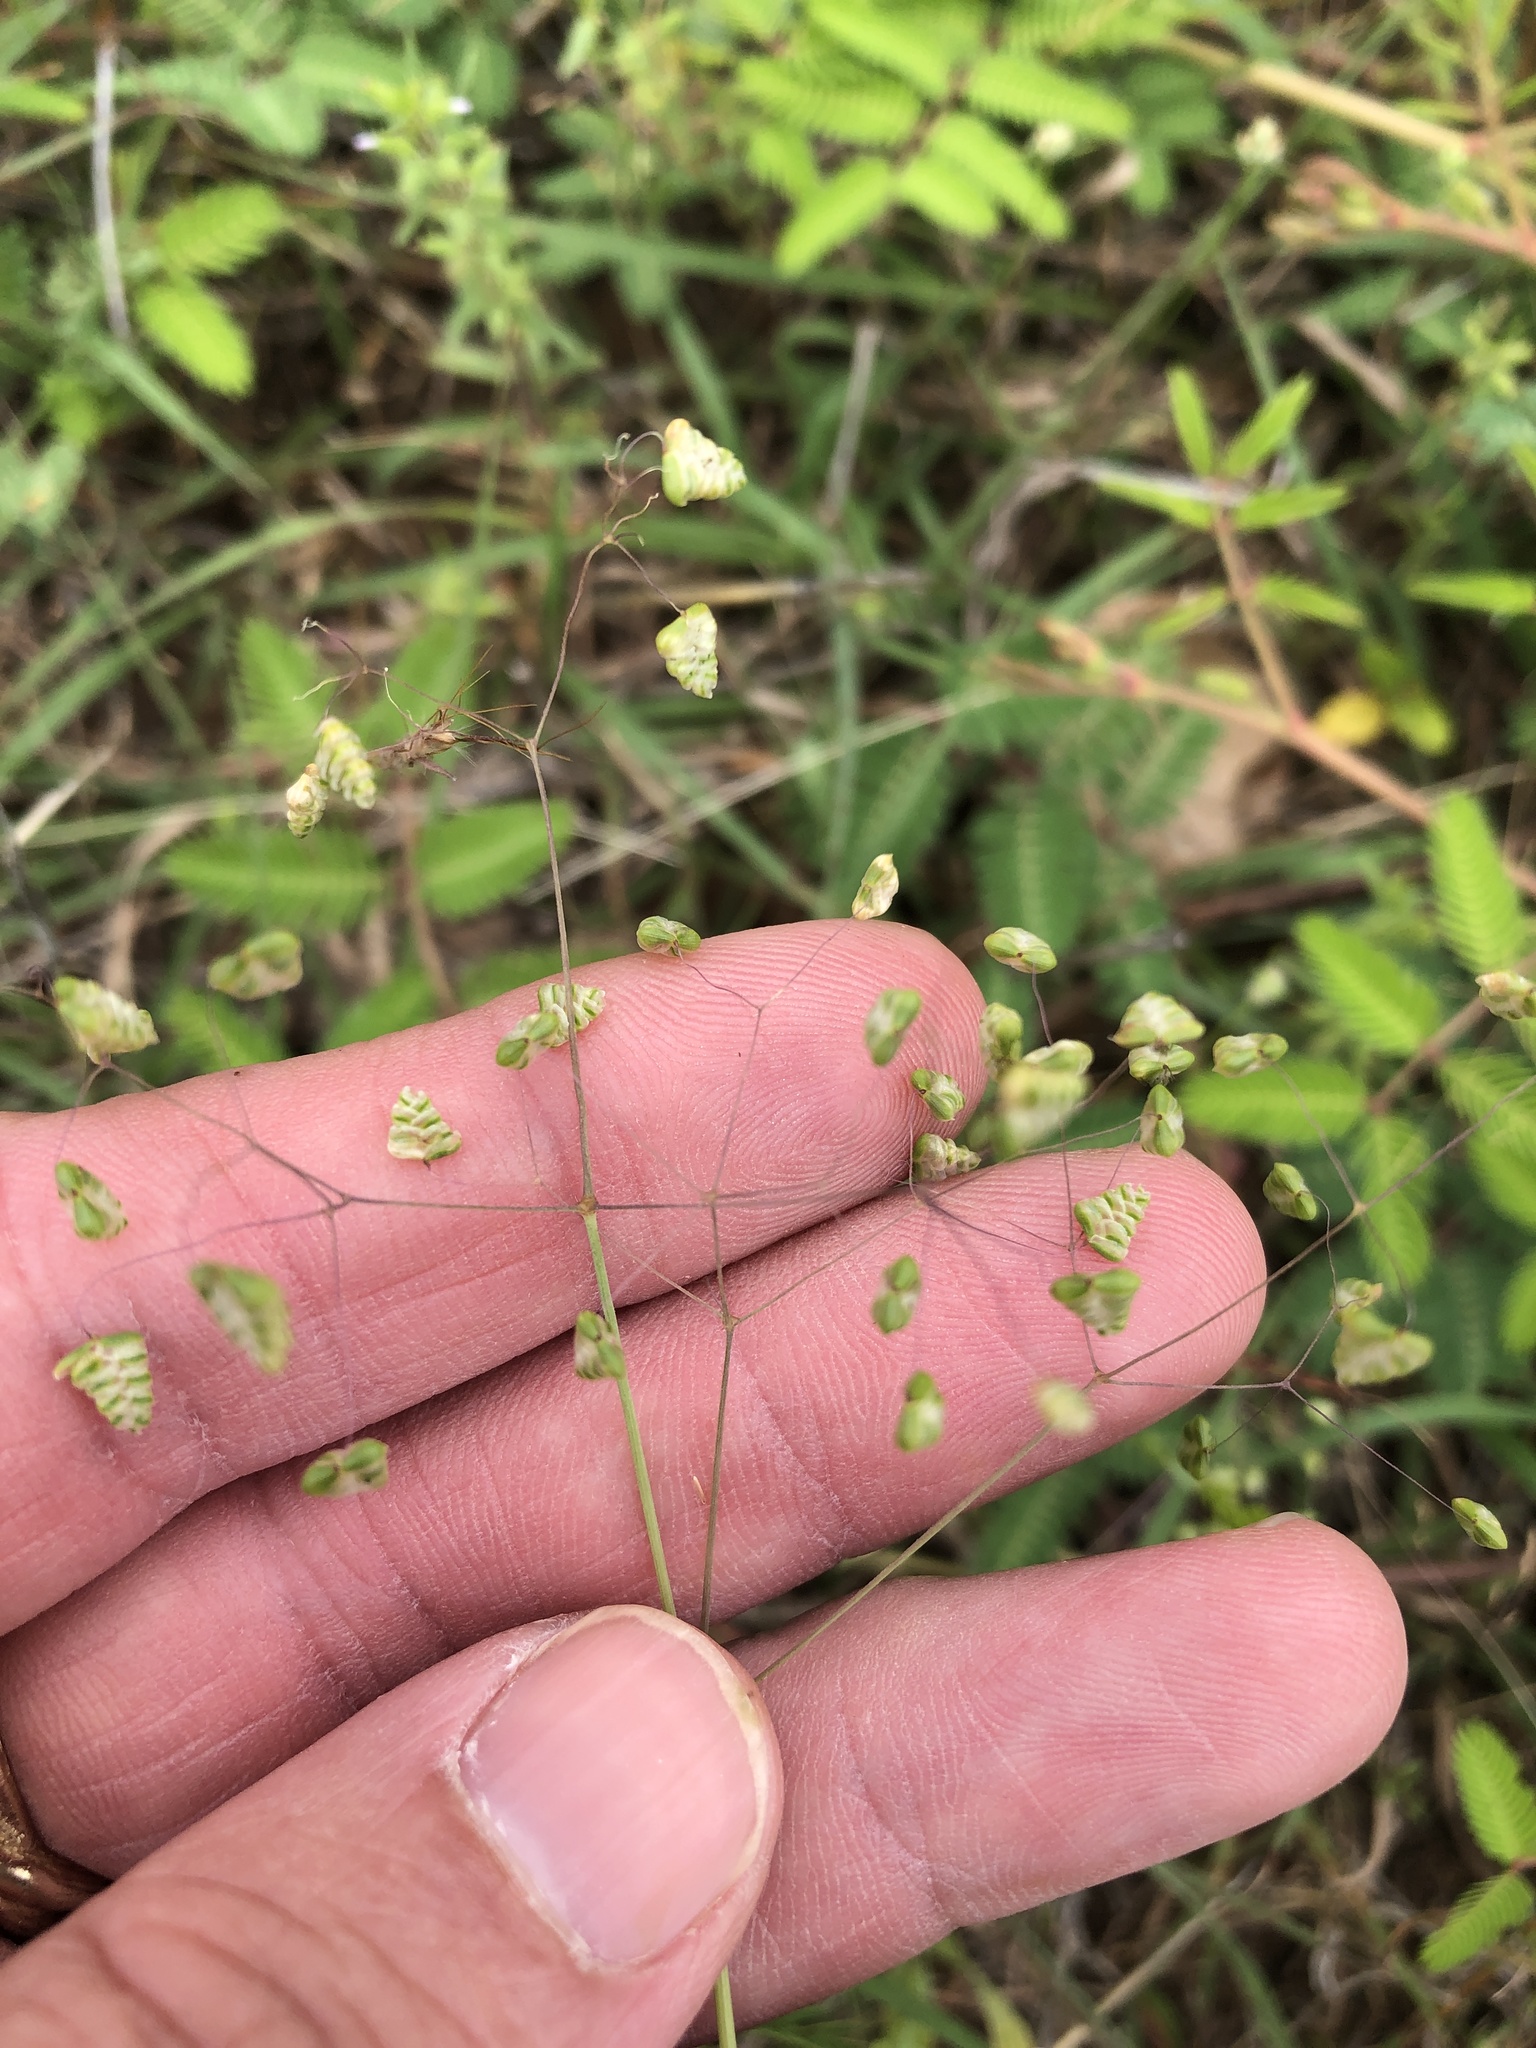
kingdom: Plantae
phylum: Tracheophyta
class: Liliopsida
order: Poales
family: Poaceae
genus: Briza
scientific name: Briza minor
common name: Lesser quaking-grass
